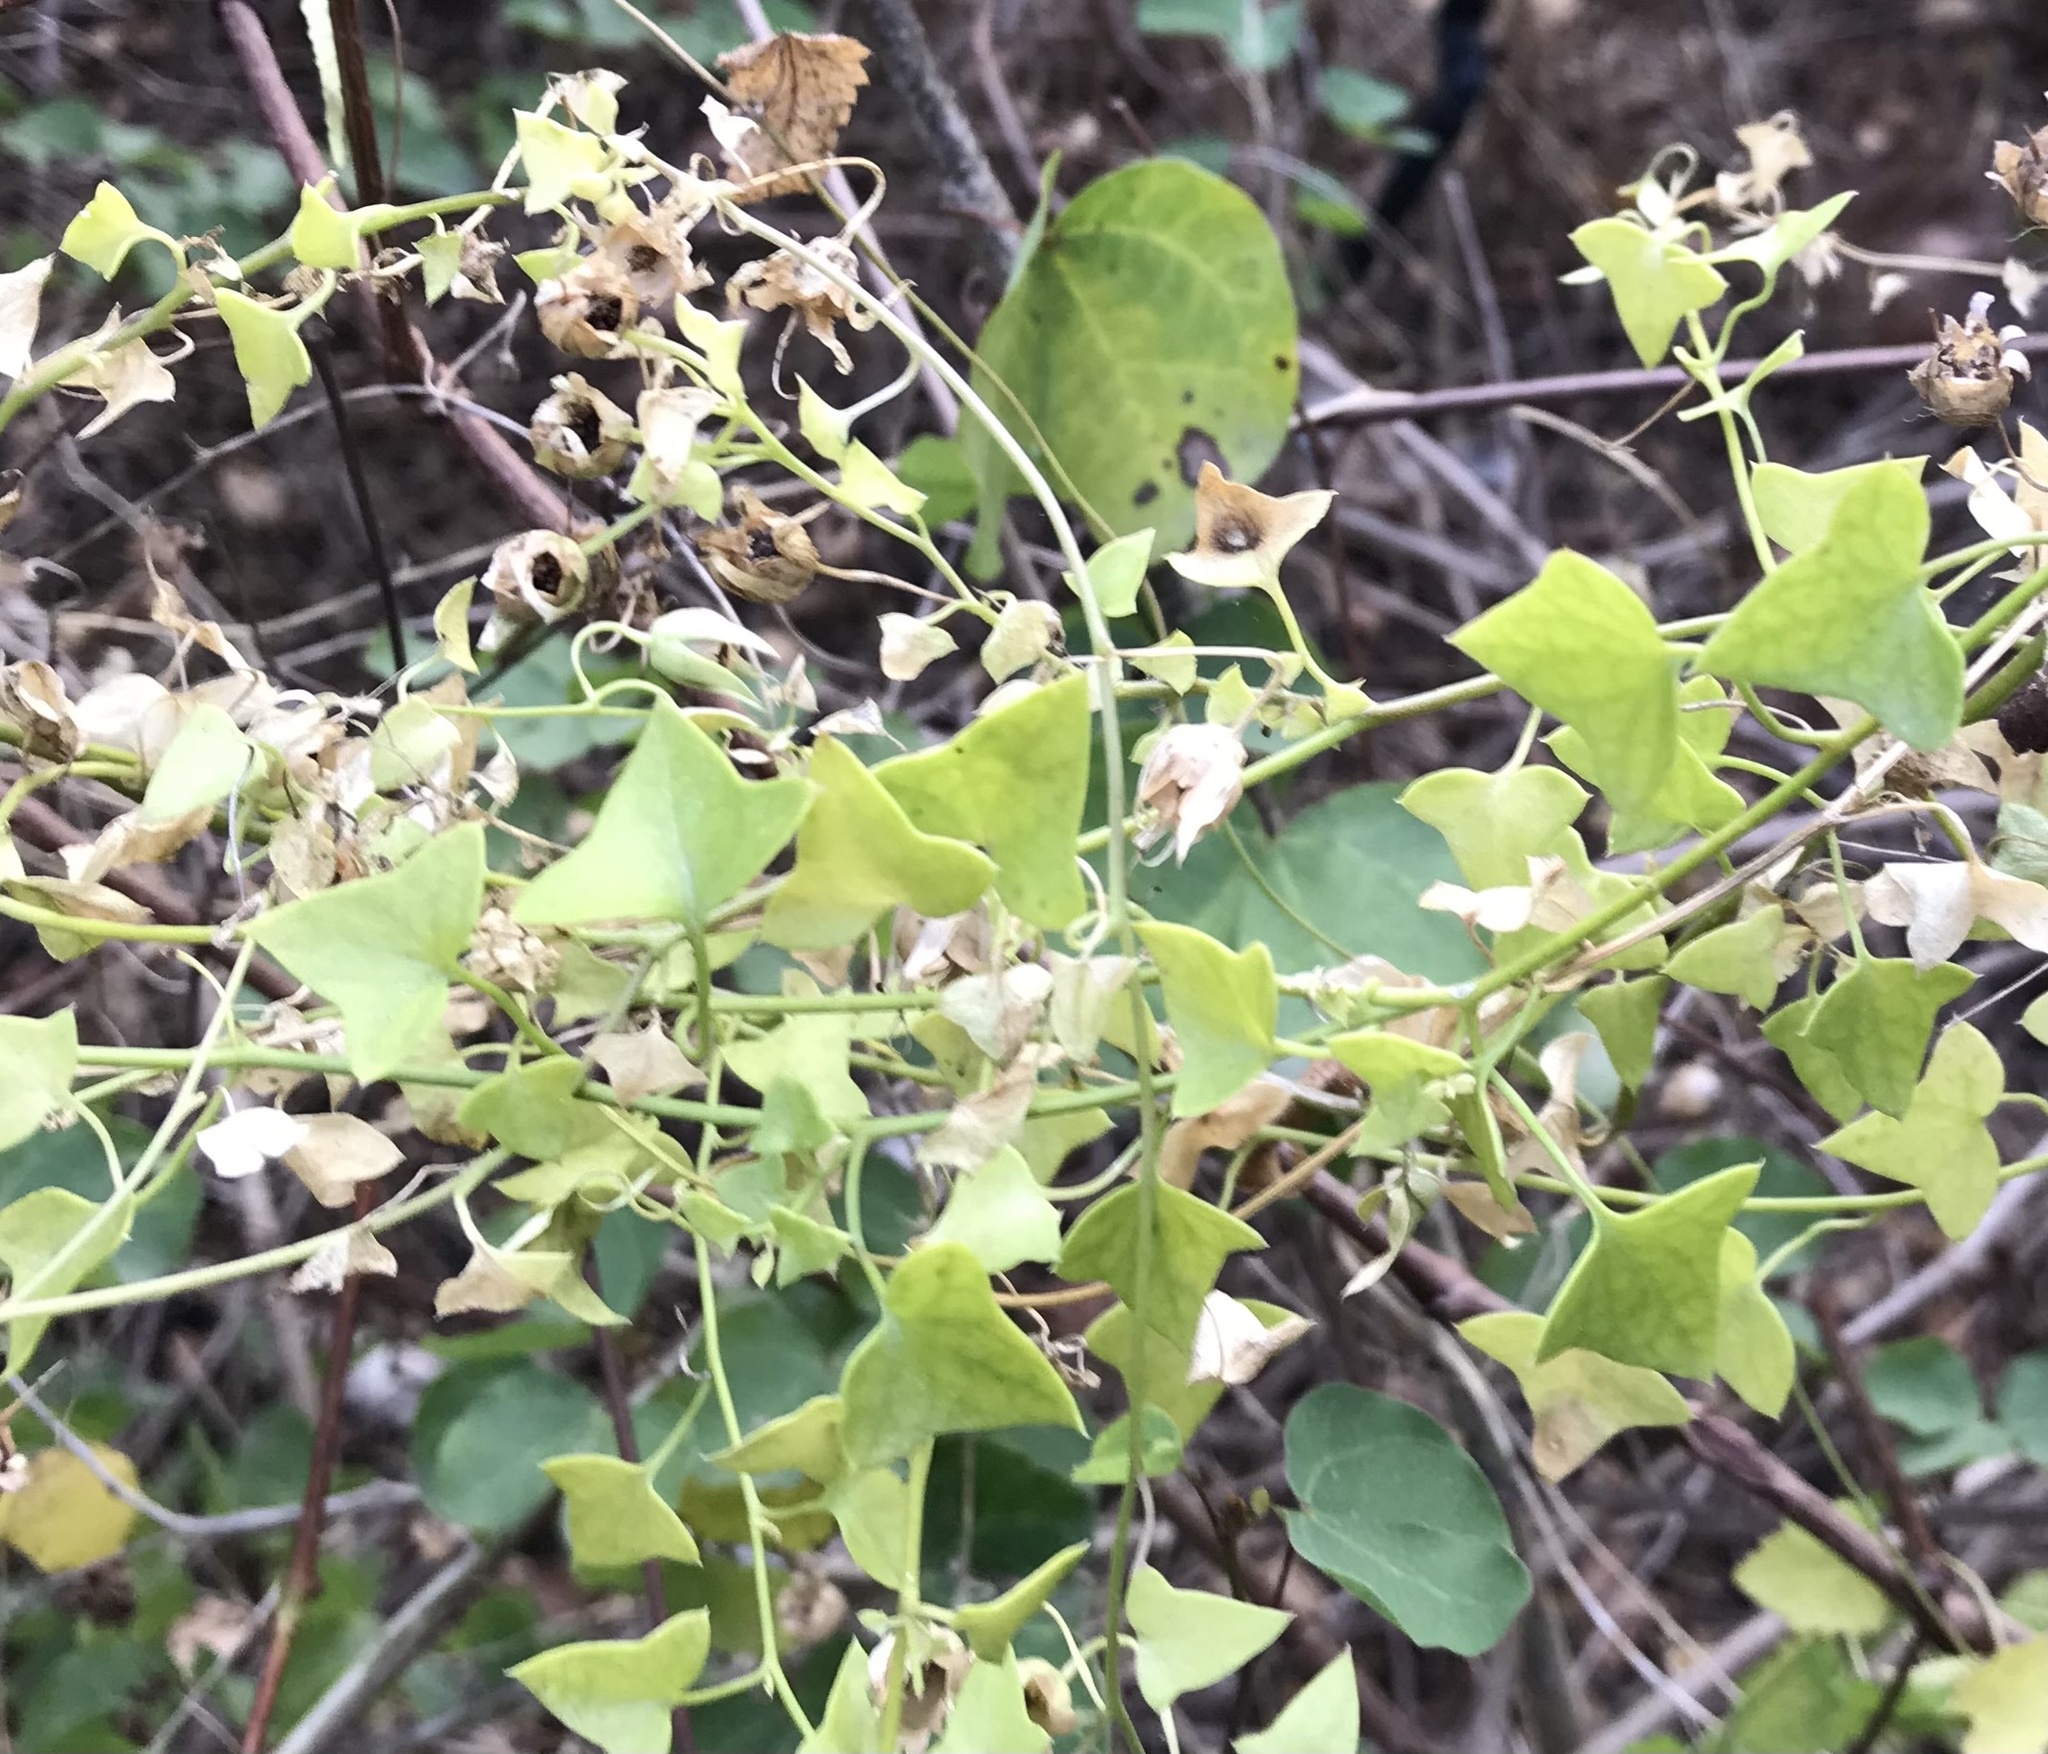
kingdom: Plantae
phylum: Tracheophyta
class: Magnoliopsida
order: Lamiales
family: Plantaginaceae
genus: Maurandella
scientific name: Maurandella antirrhiniflora
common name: Violet twining-snapdragon
